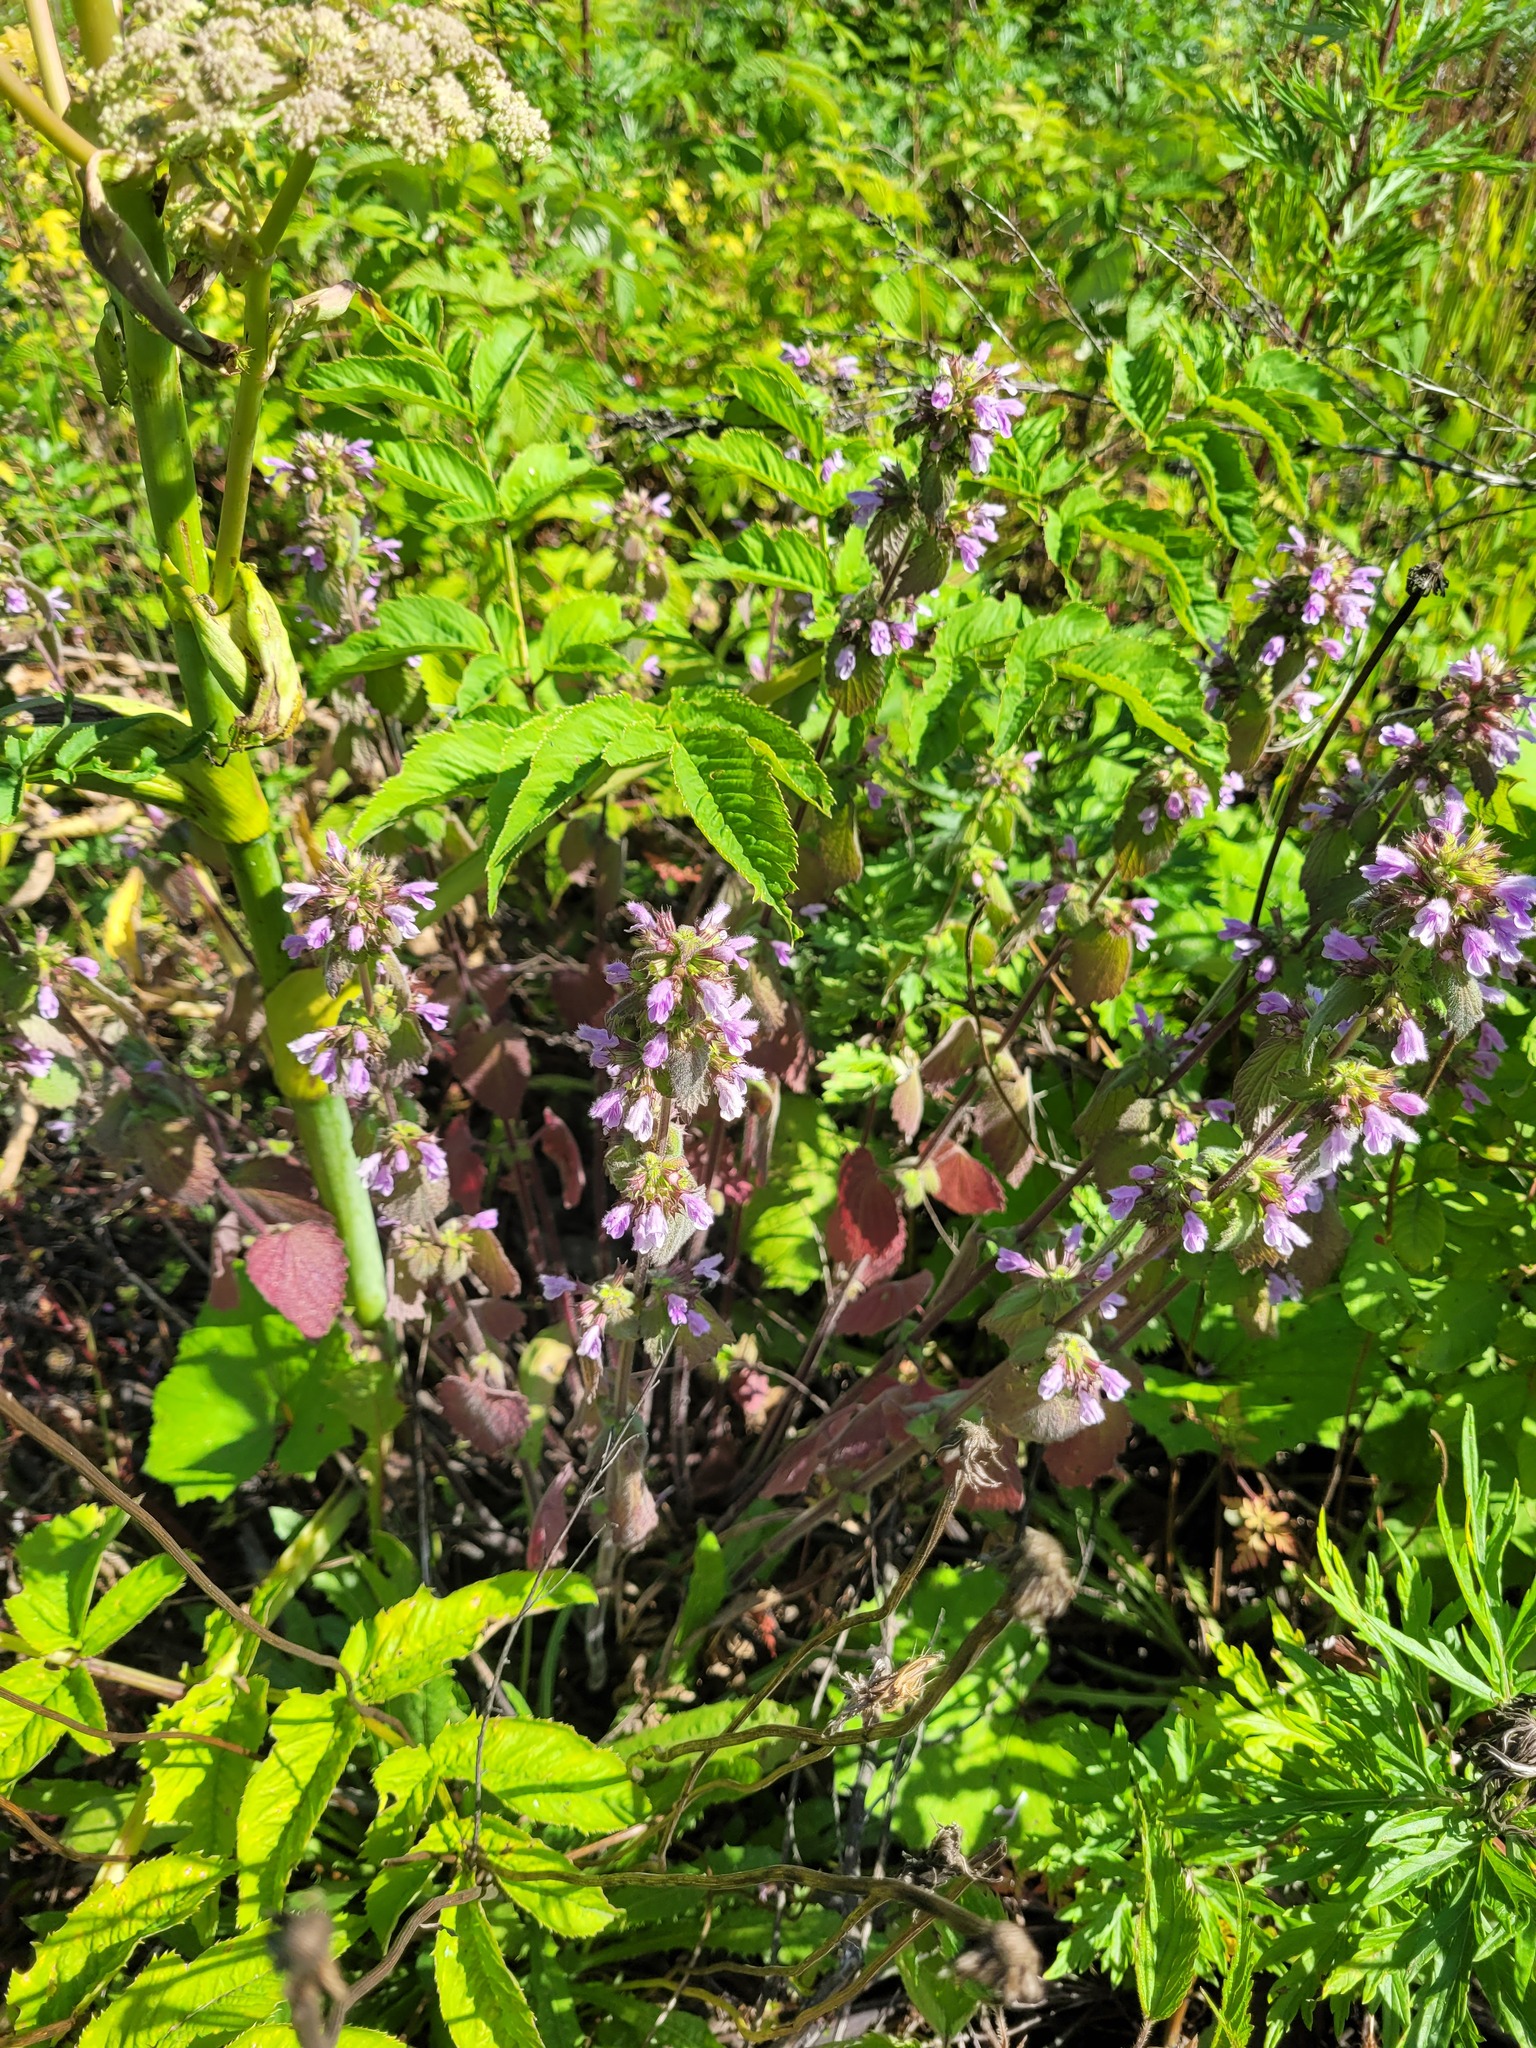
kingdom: Plantae
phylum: Tracheophyta
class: Magnoliopsida
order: Lamiales
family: Lamiaceae
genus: Ballota
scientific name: Ballota nigra
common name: Black horehound
